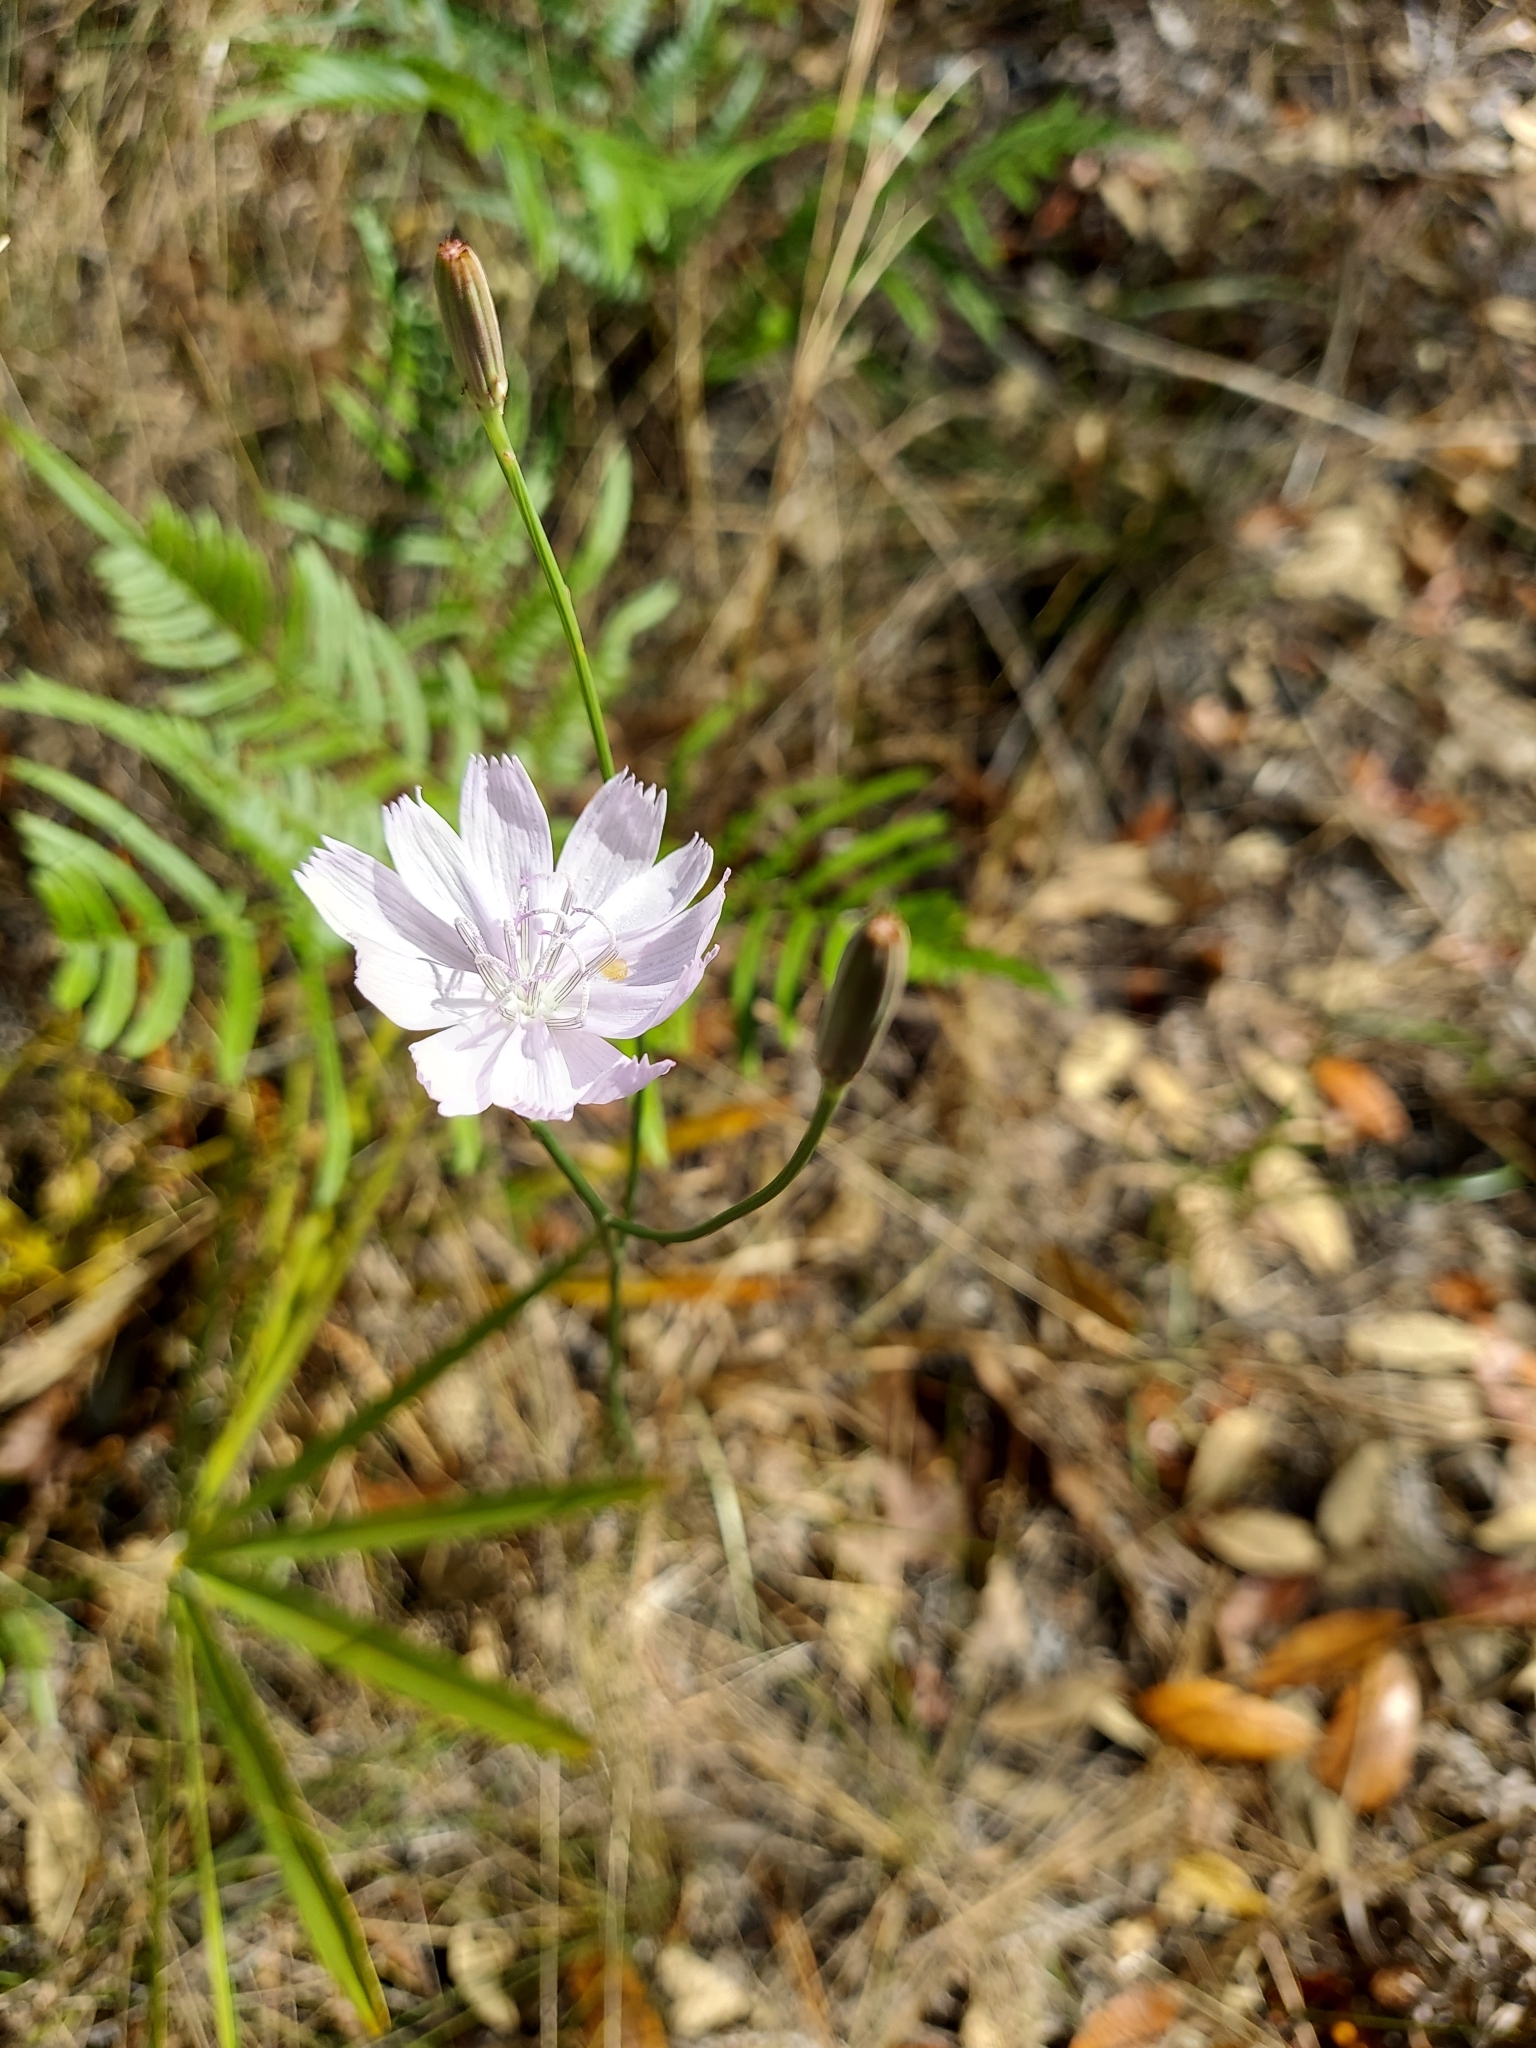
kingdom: Plantae
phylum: Tracheophyta
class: Magnoliopsida
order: Asterales
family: Asteraceae
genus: Lygodesmia
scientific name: Lygodesmia aphylla
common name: Rose-rush
